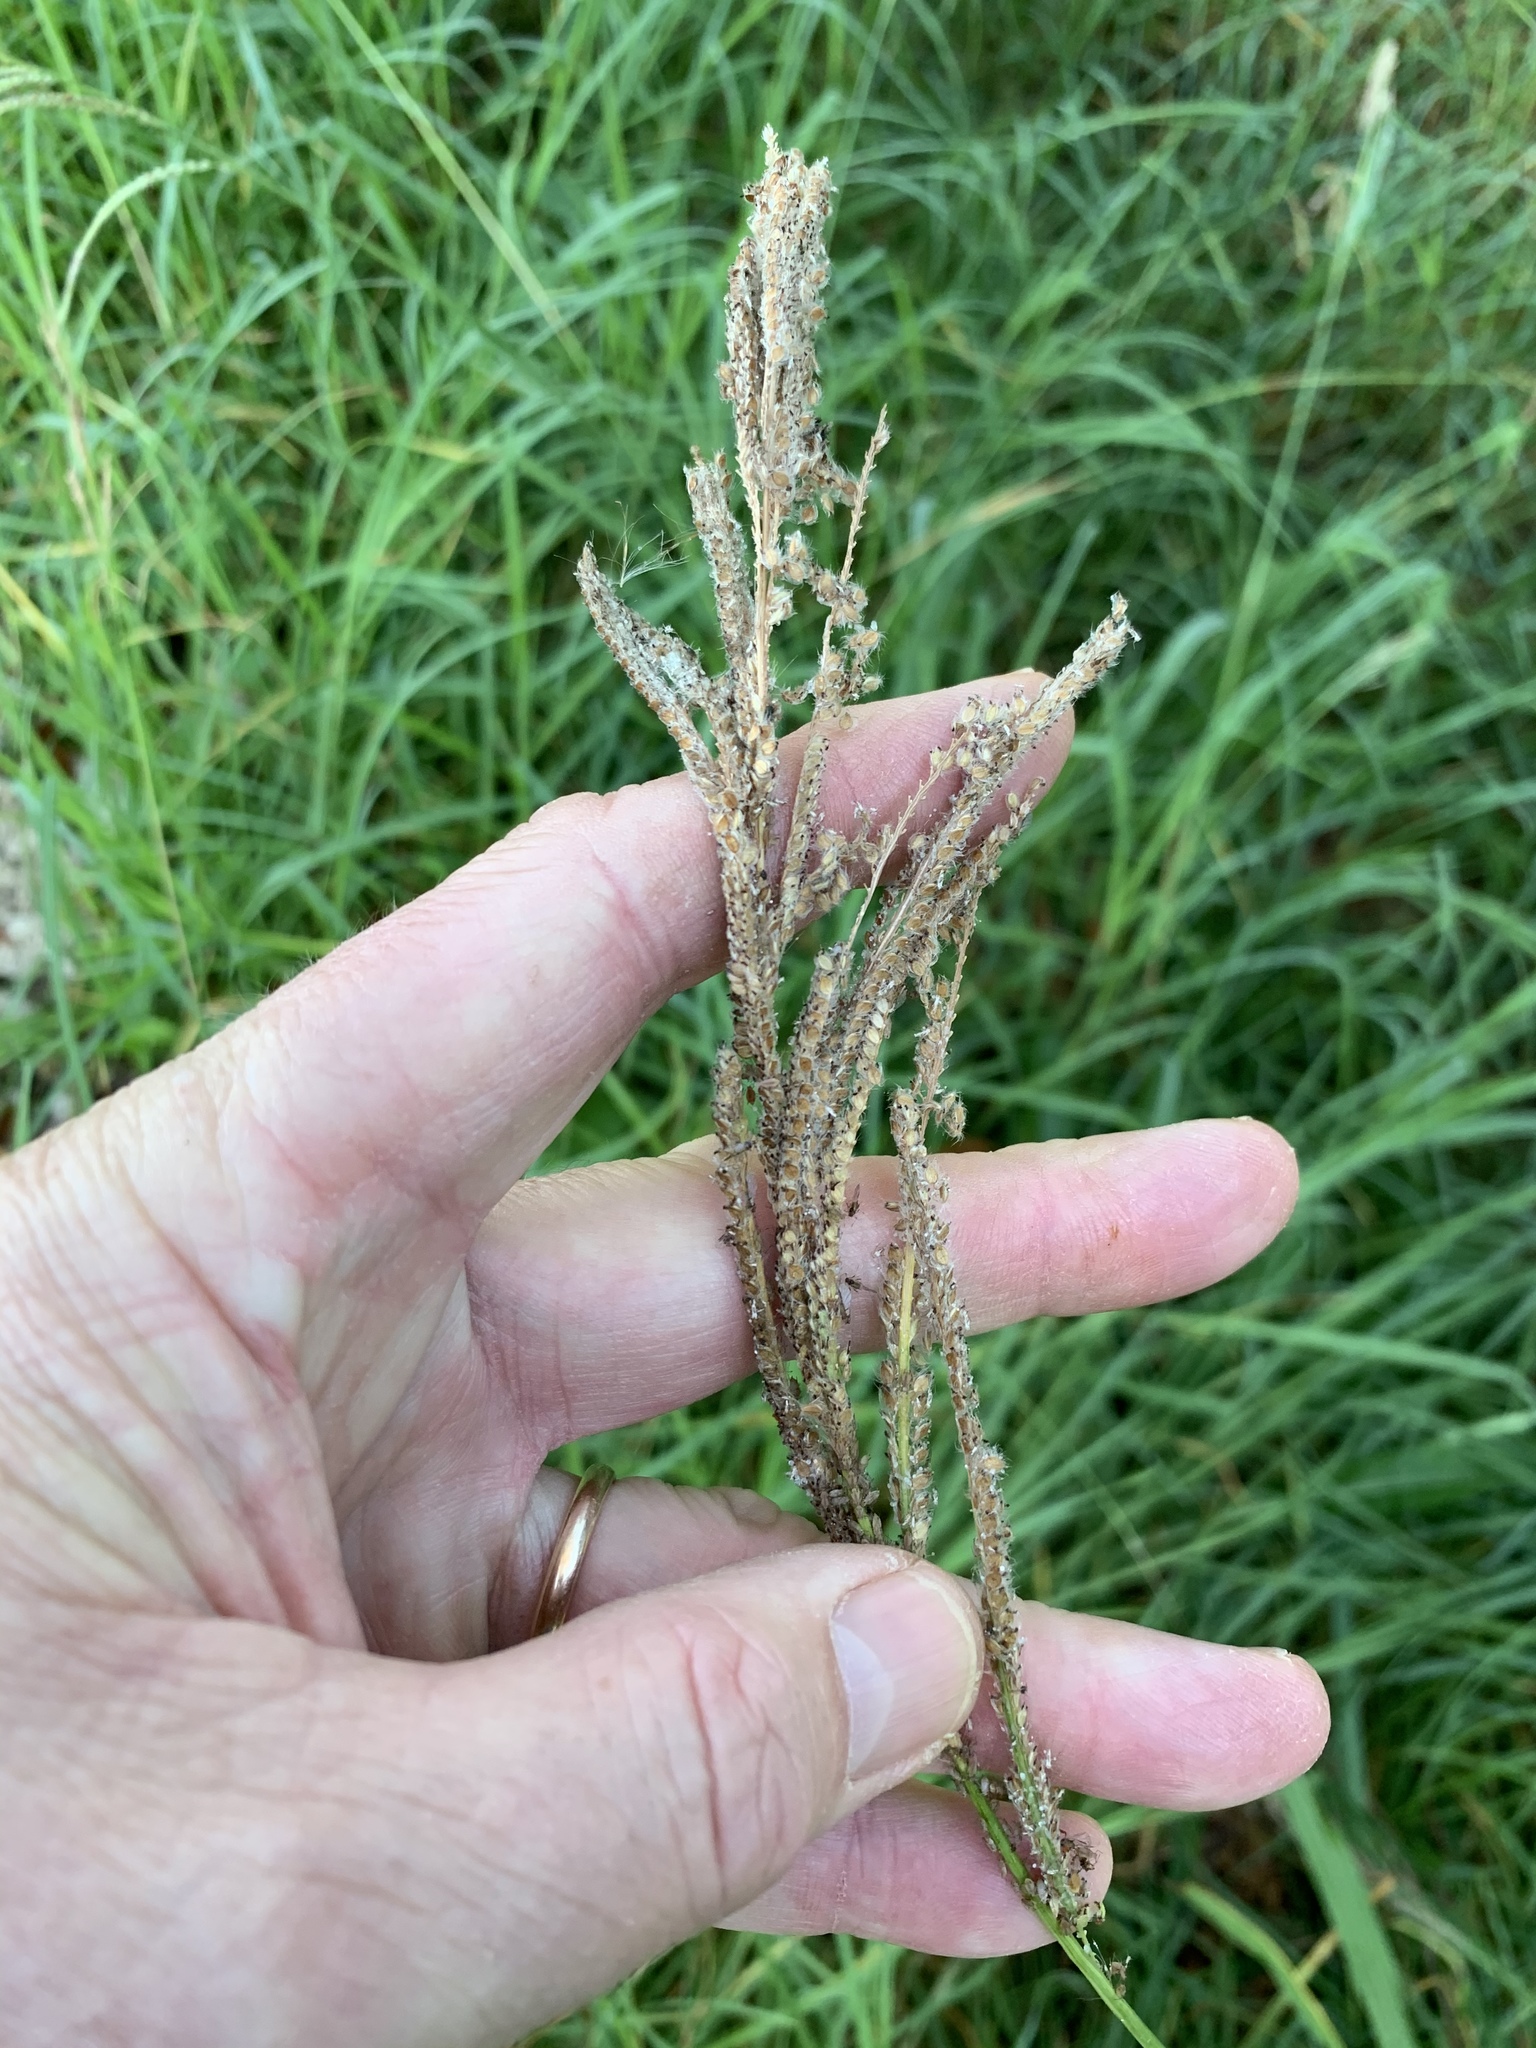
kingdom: Plantae
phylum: Tracheophyta
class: Liliopsida
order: Poales
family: Poaceae
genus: Paspalum
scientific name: Paspalum urvillei
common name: Vasey's grass
